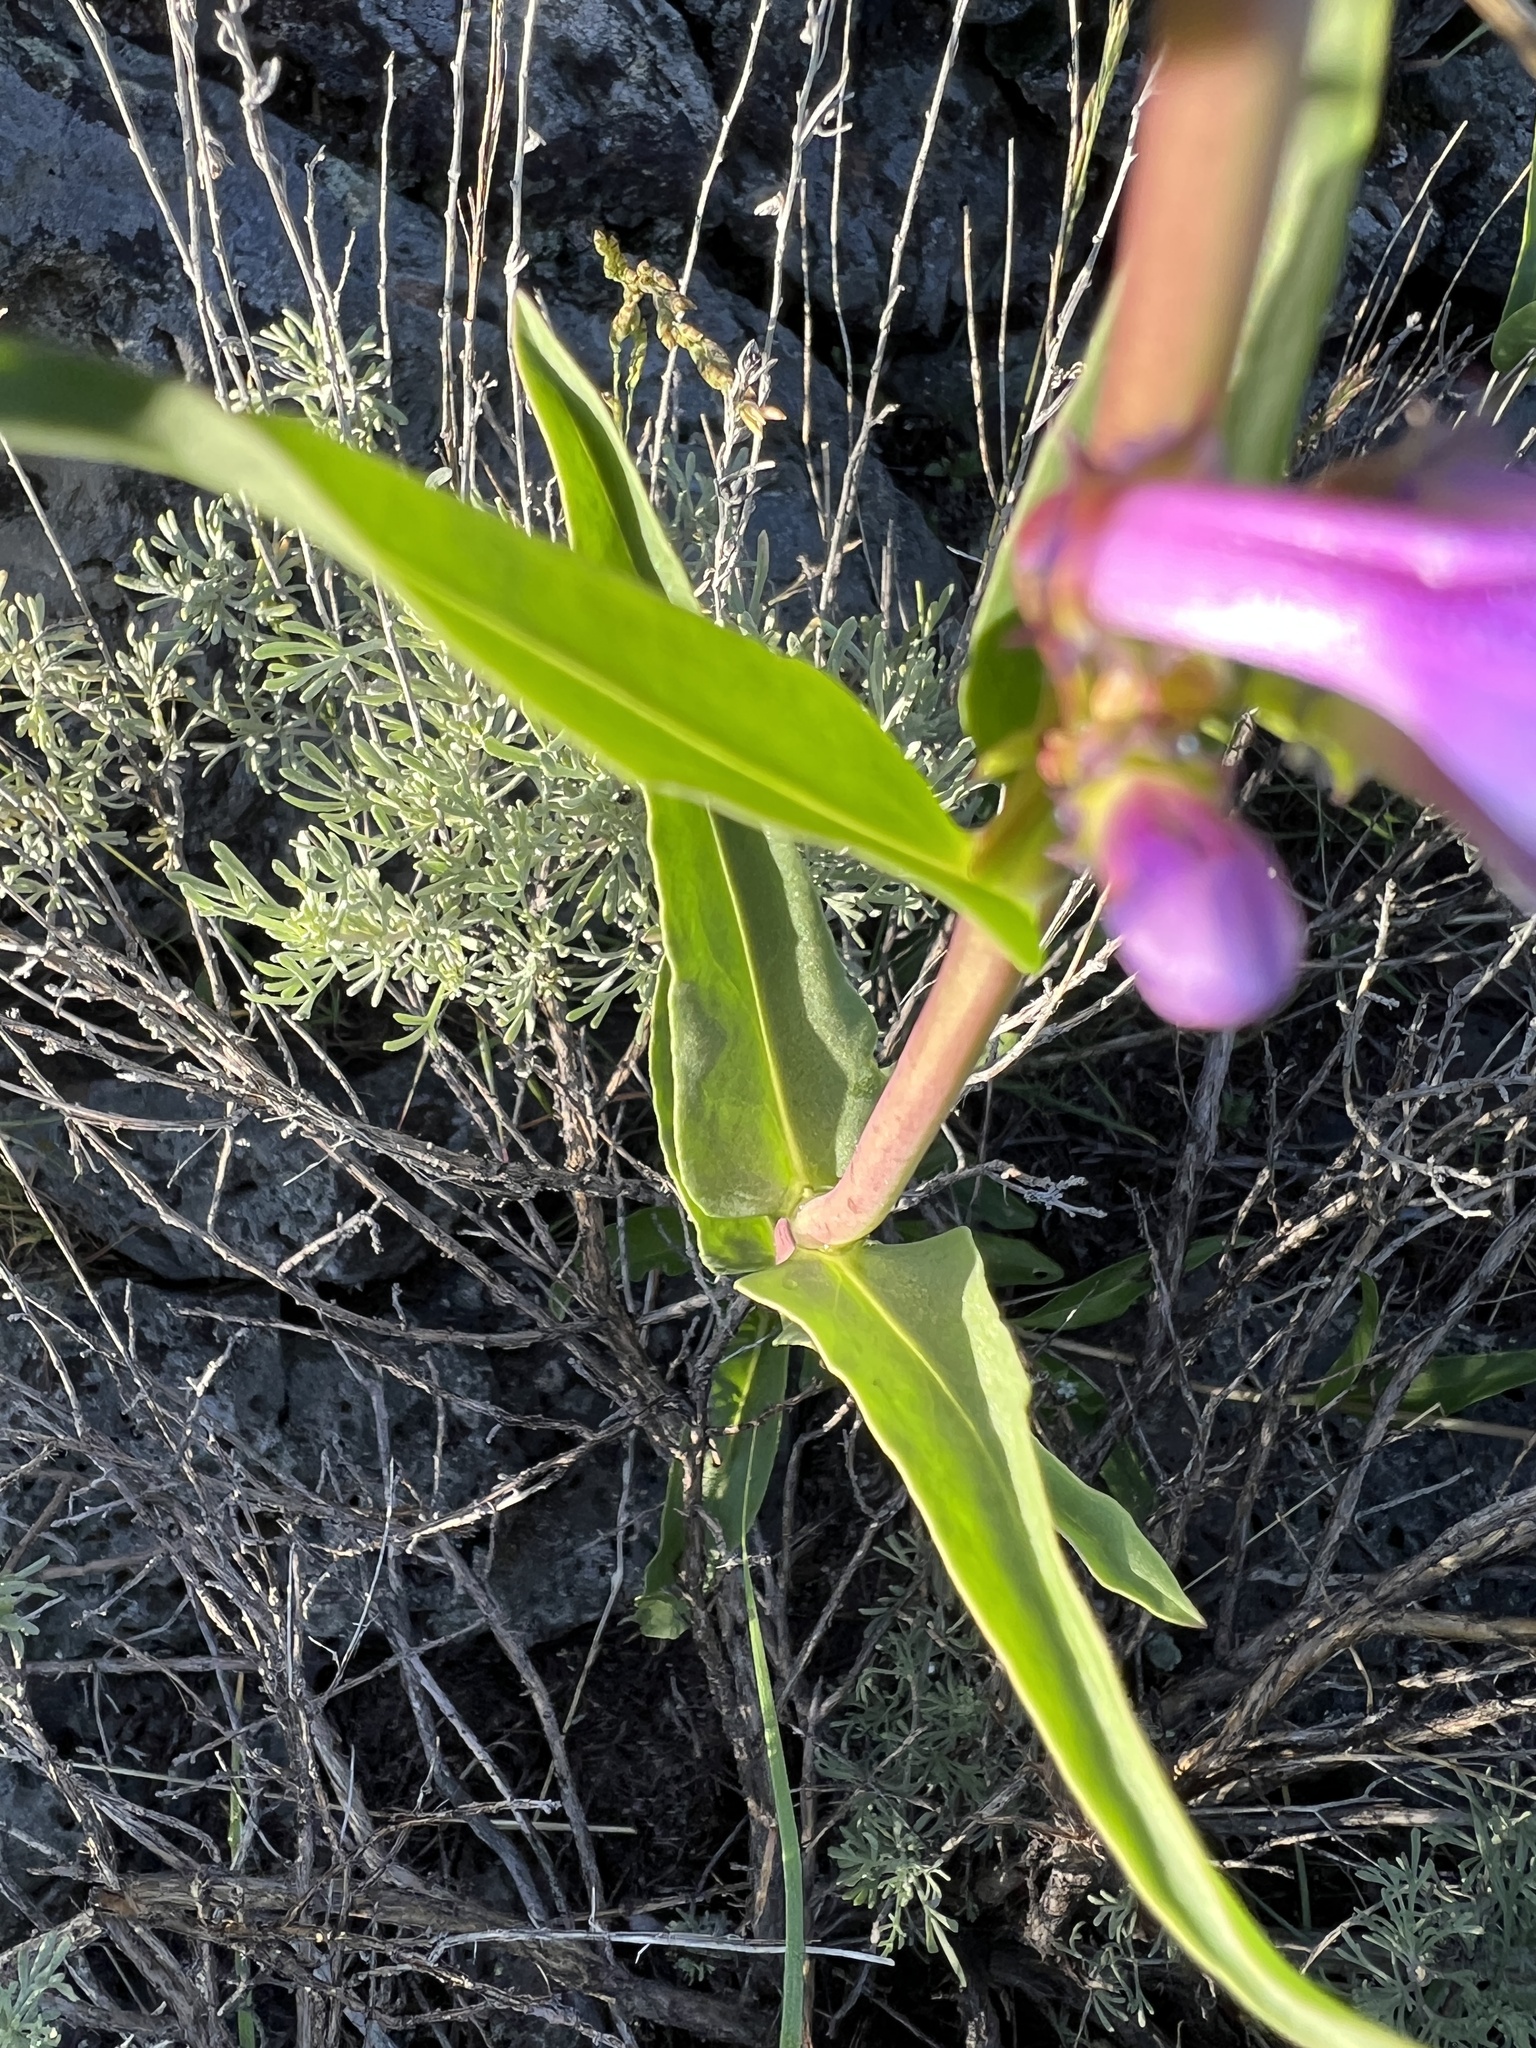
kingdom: Plantae
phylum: Tracheophyta
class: Magnoliopsida
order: Lamiales
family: Plantaginaceae
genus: Penstemon
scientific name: Penstemon cyaneus
